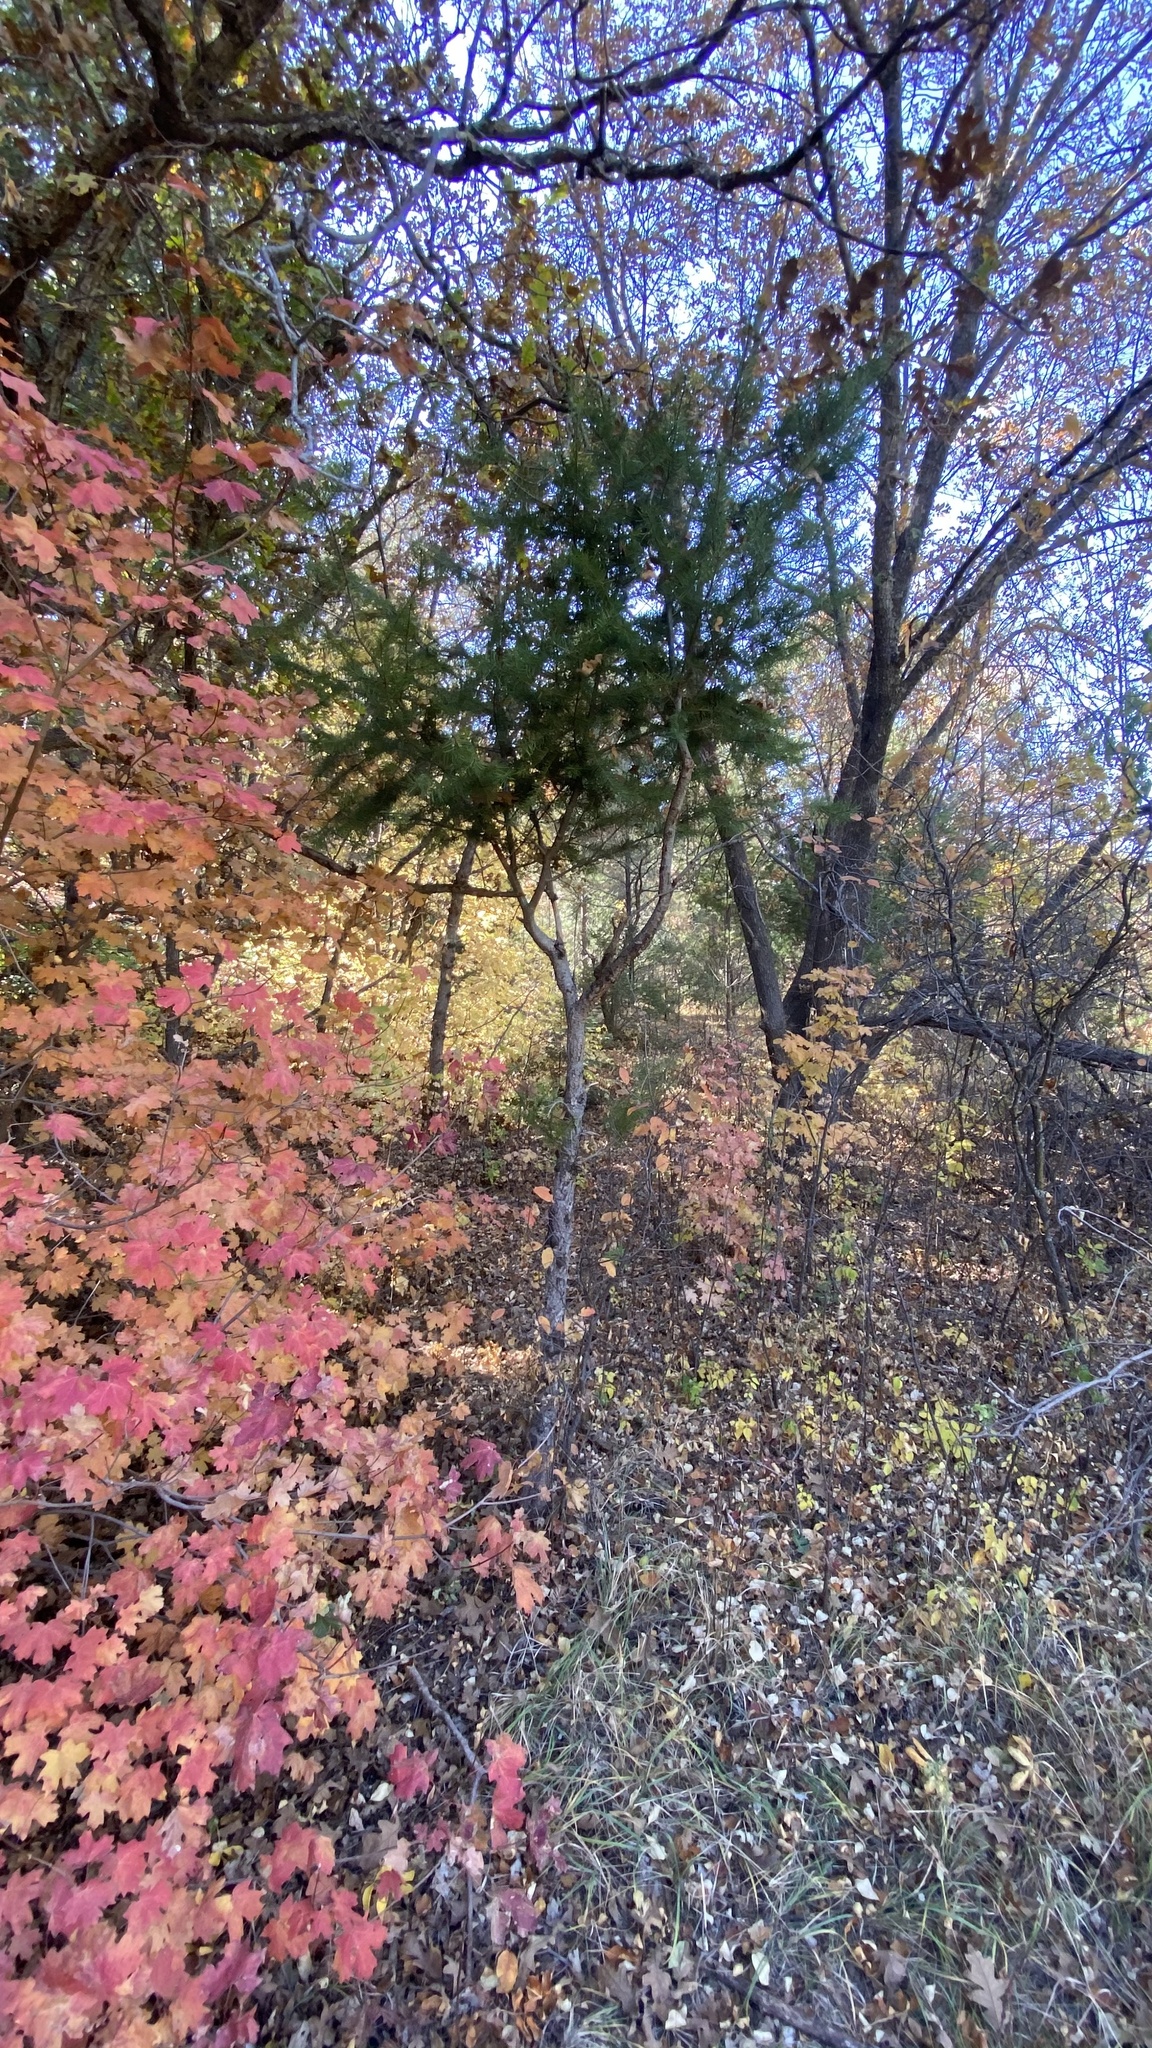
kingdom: Plantae
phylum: Tracheophyta
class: Pinopsida
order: Pinales
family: Pinaceae
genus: Abies
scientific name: Abies concolor
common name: Colorado fir
